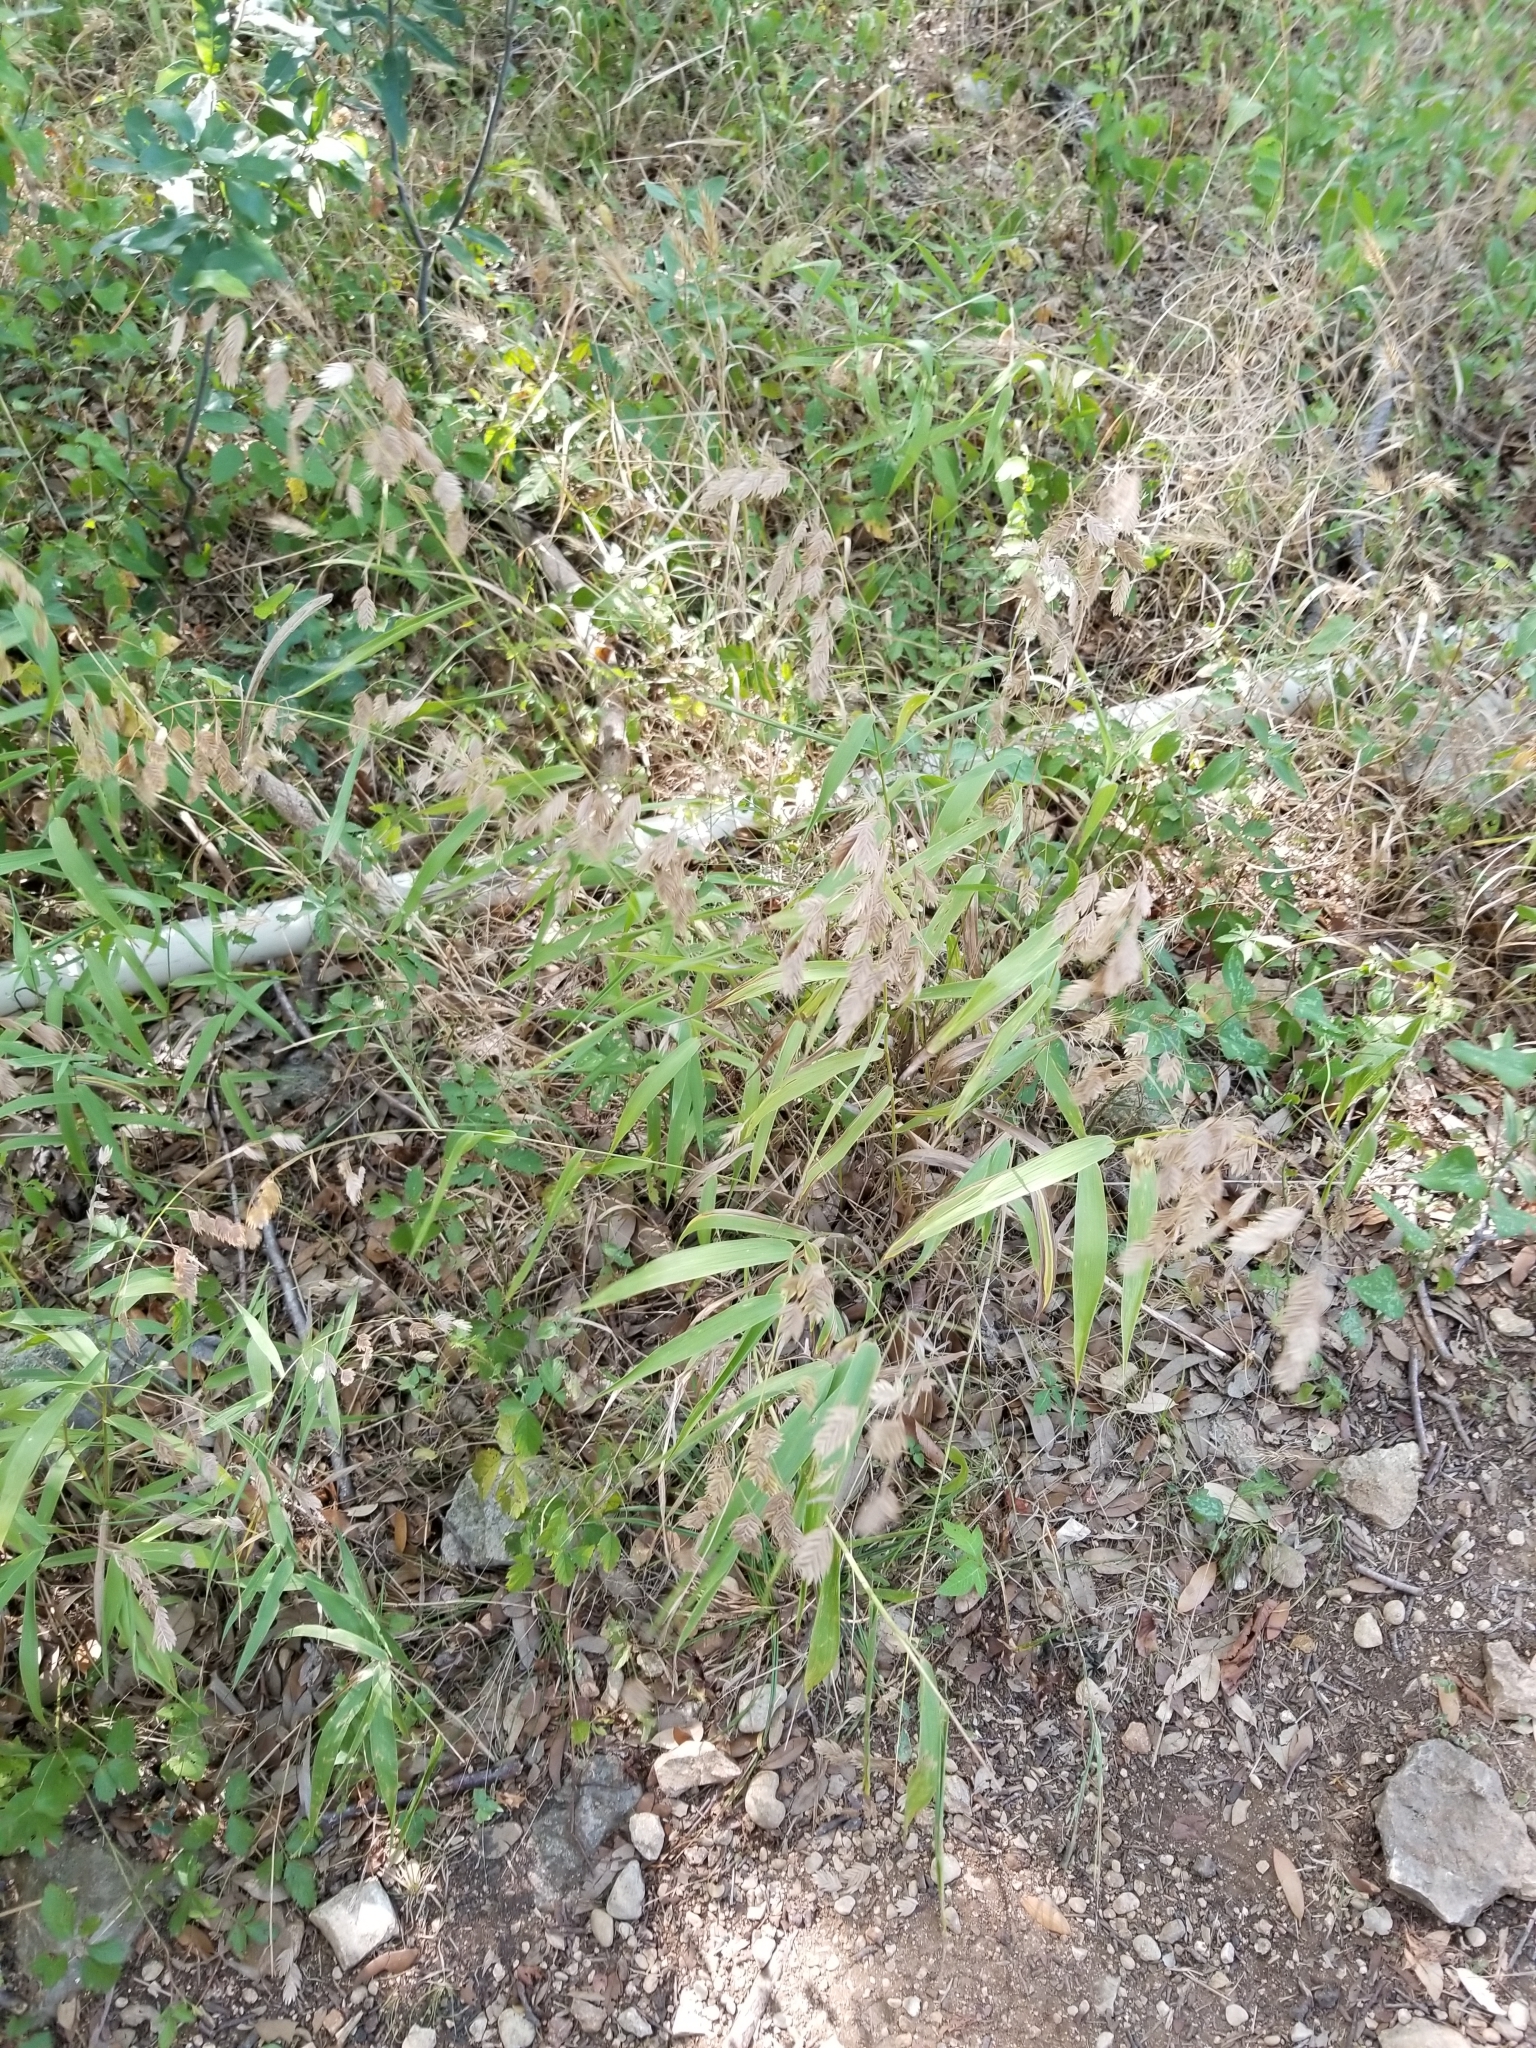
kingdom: Plantae
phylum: Tracheophyta
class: Liliopsida
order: Poales
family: Poaceae
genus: Chasmanthium
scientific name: Chasmanthium latifolium
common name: Broad-leaved chasmanthium
